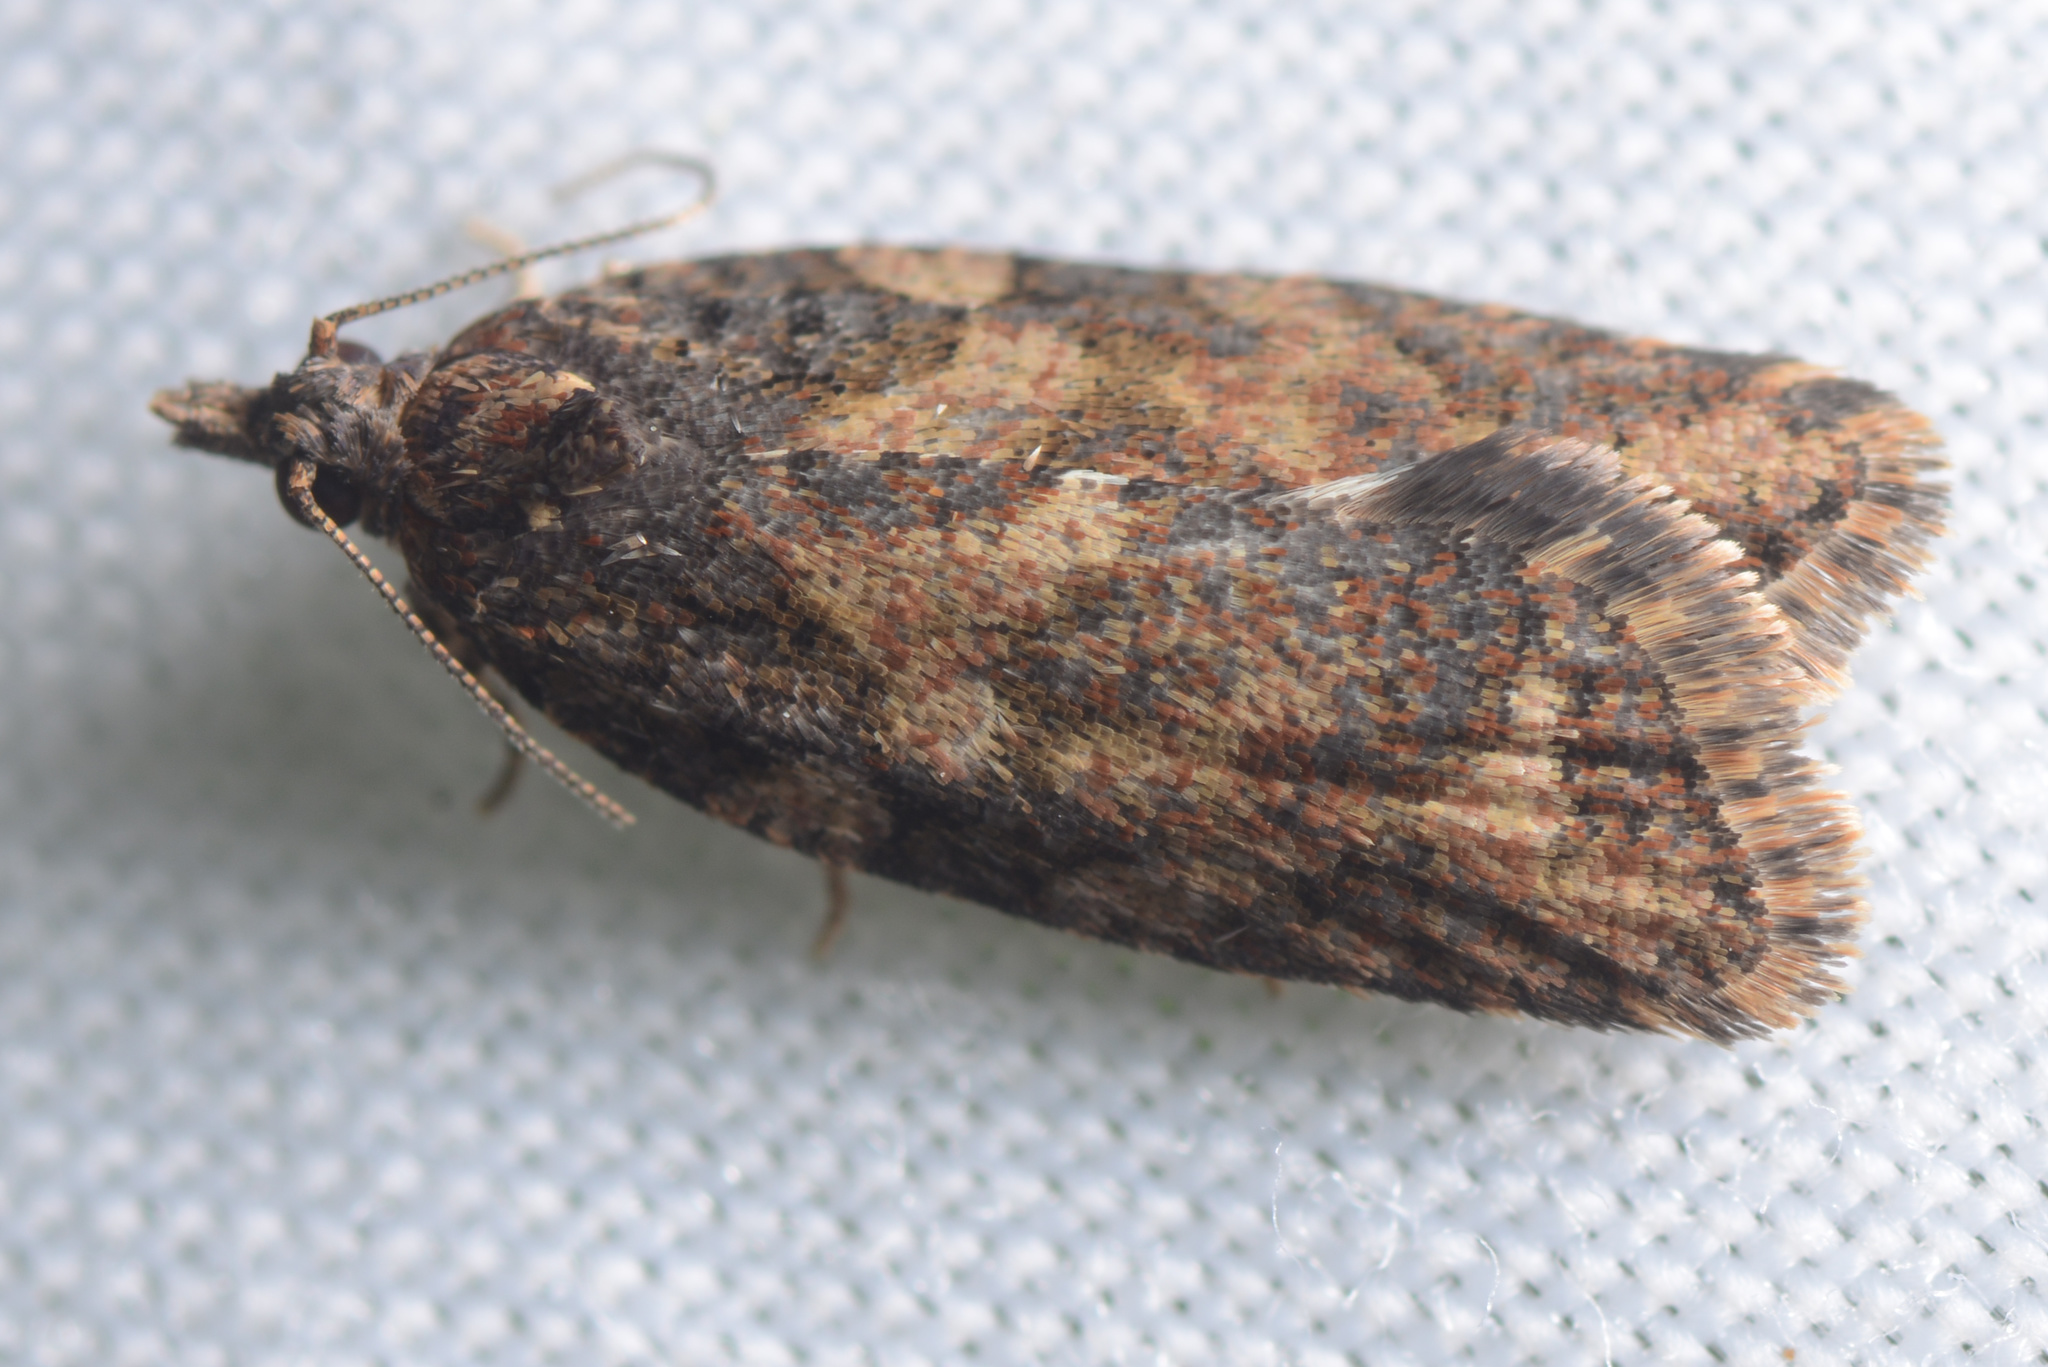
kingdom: Animalia
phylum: Arthropoda
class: Insecta
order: Lepidoptera
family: Tortricidae
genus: Capua
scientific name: Capua intractana
